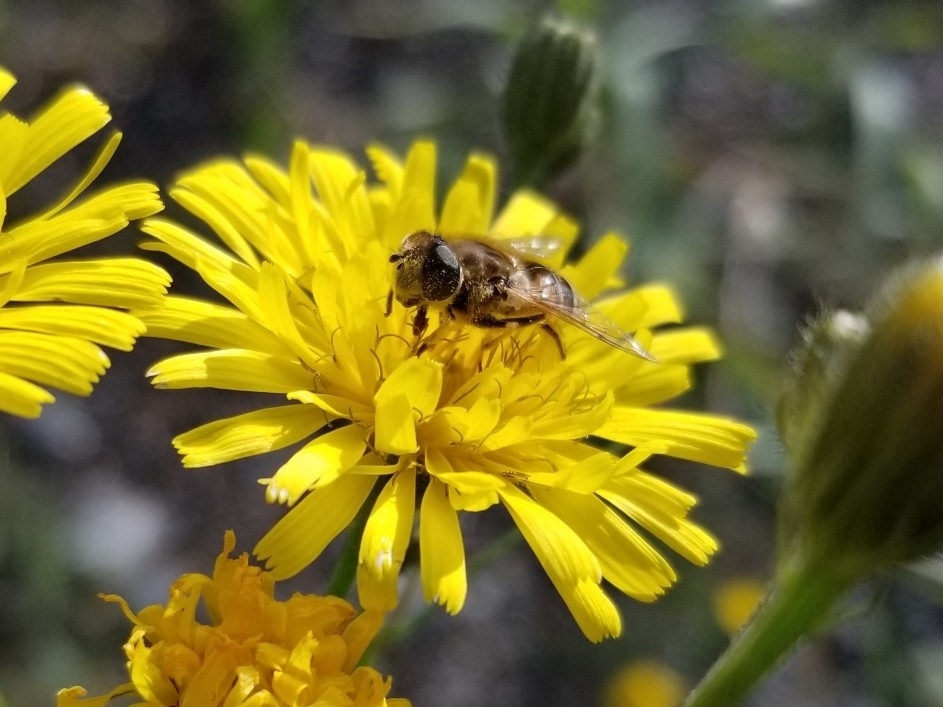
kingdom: Animalia
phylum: Arthropoda
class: Insecta
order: Diptera
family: Syrphidae
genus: Eristalis
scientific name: Eristalis arbustorum
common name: Hover fly
